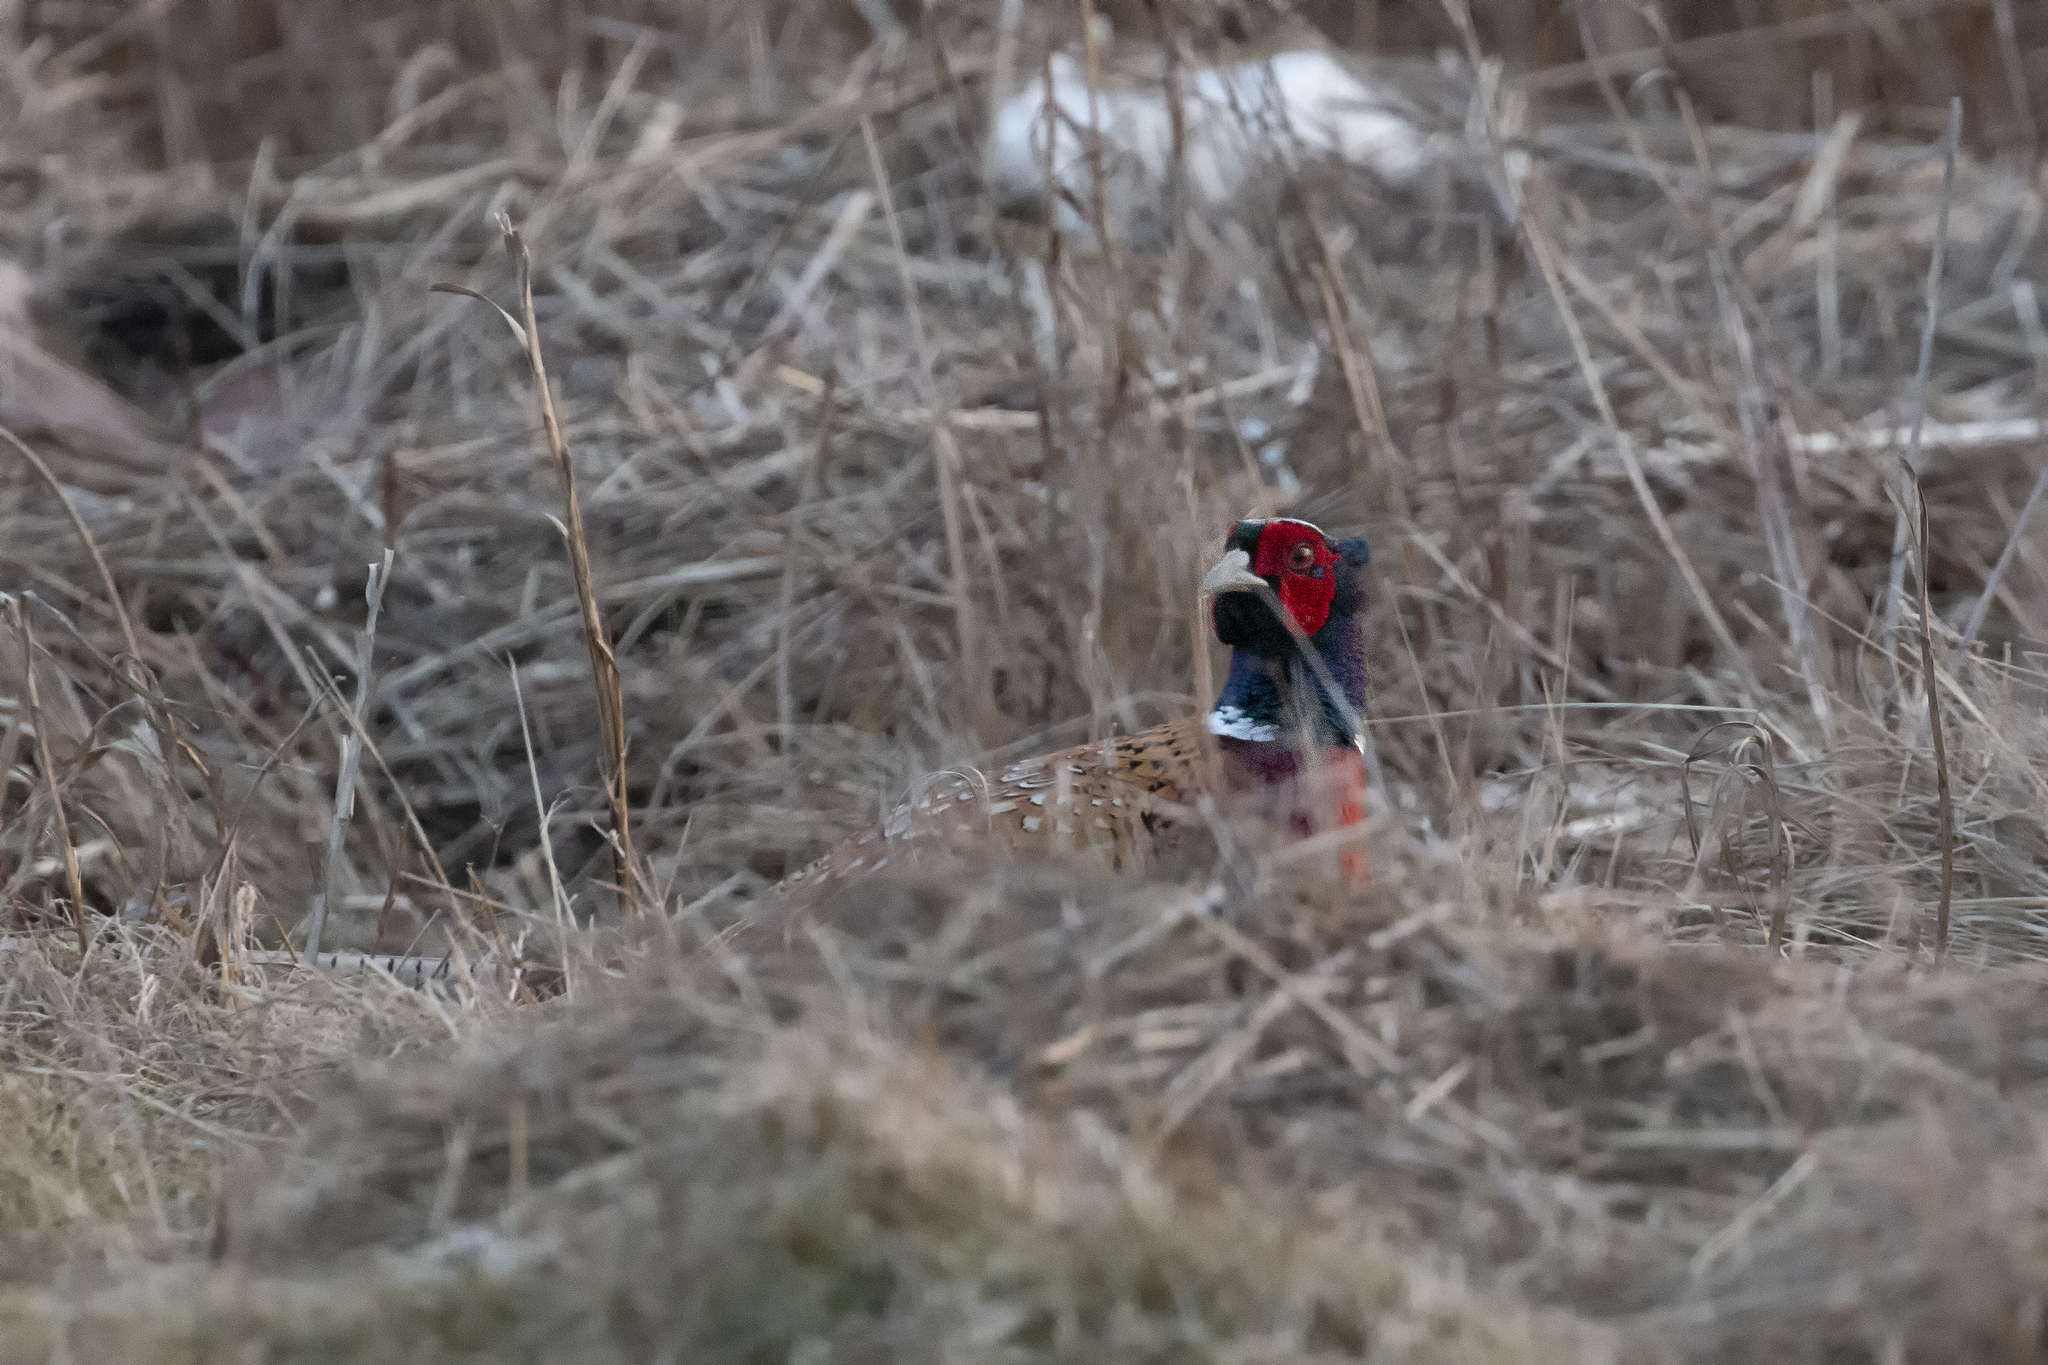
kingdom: Animalia
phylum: Chordata
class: Aves
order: Galliformes
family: Phasianidae
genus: Phasianus
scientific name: Phasianus colchicus
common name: Common pheasant
